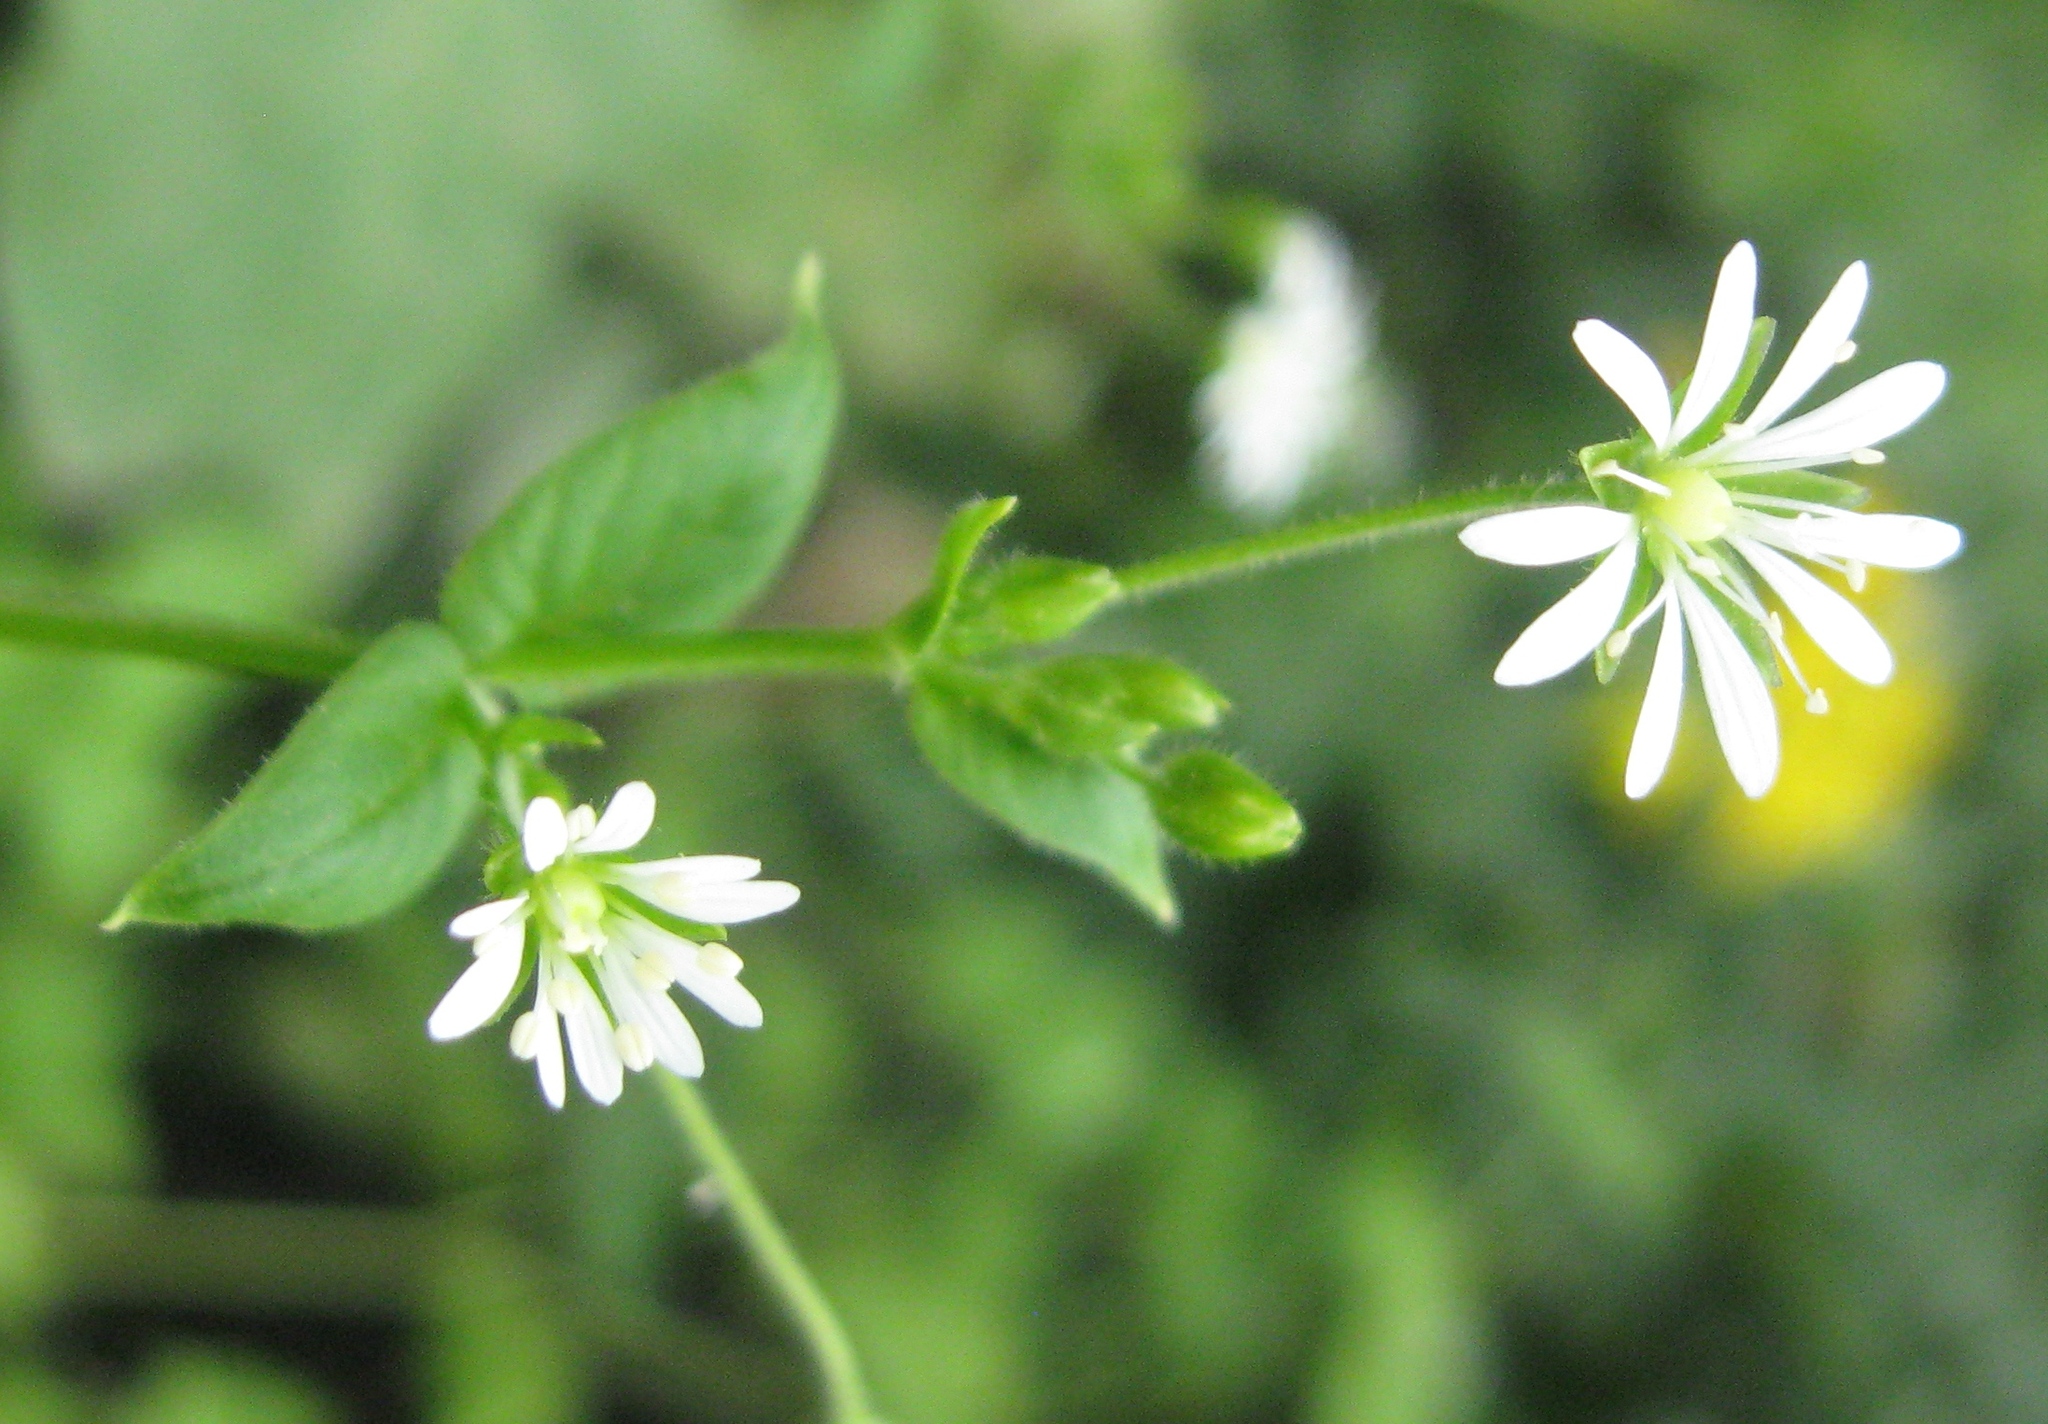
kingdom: Plantae
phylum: Tracheophyta
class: Magnoliopsida
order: Caryophyllales
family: Caryophyllaceae
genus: Stellaria
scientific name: Stellaria cuspidata
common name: Mexican chickweed
